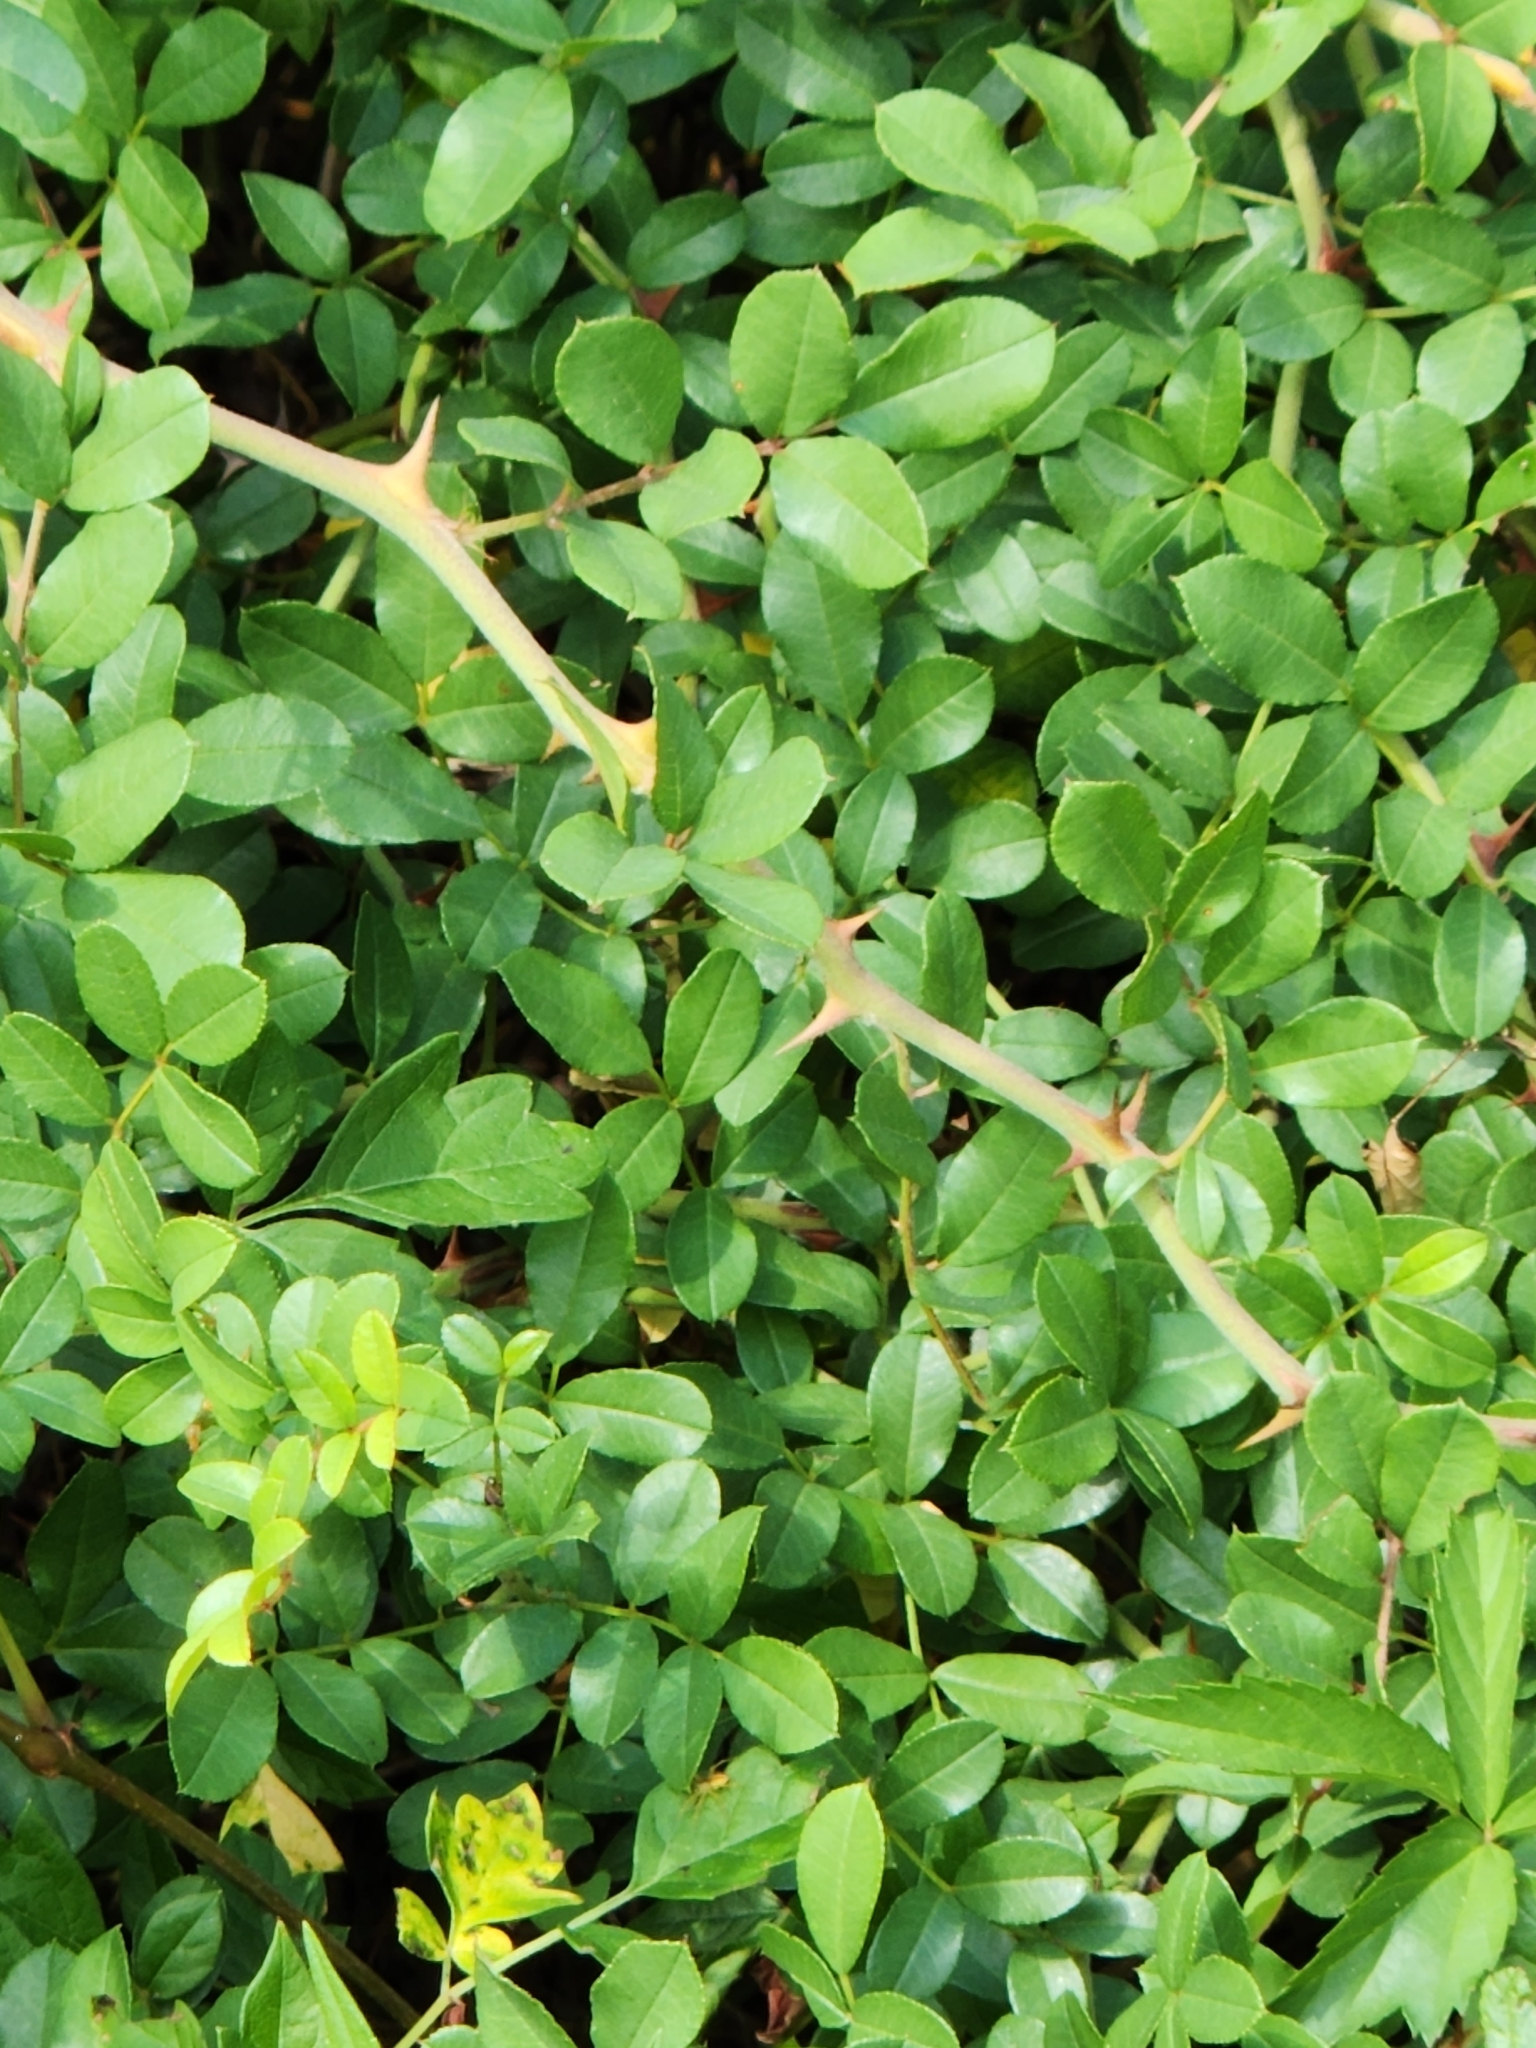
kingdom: Plantae
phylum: Tracheophyta
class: Magnoliopsida
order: Rosales
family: Rosaceae
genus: Rosa
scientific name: Rosa bracteata
